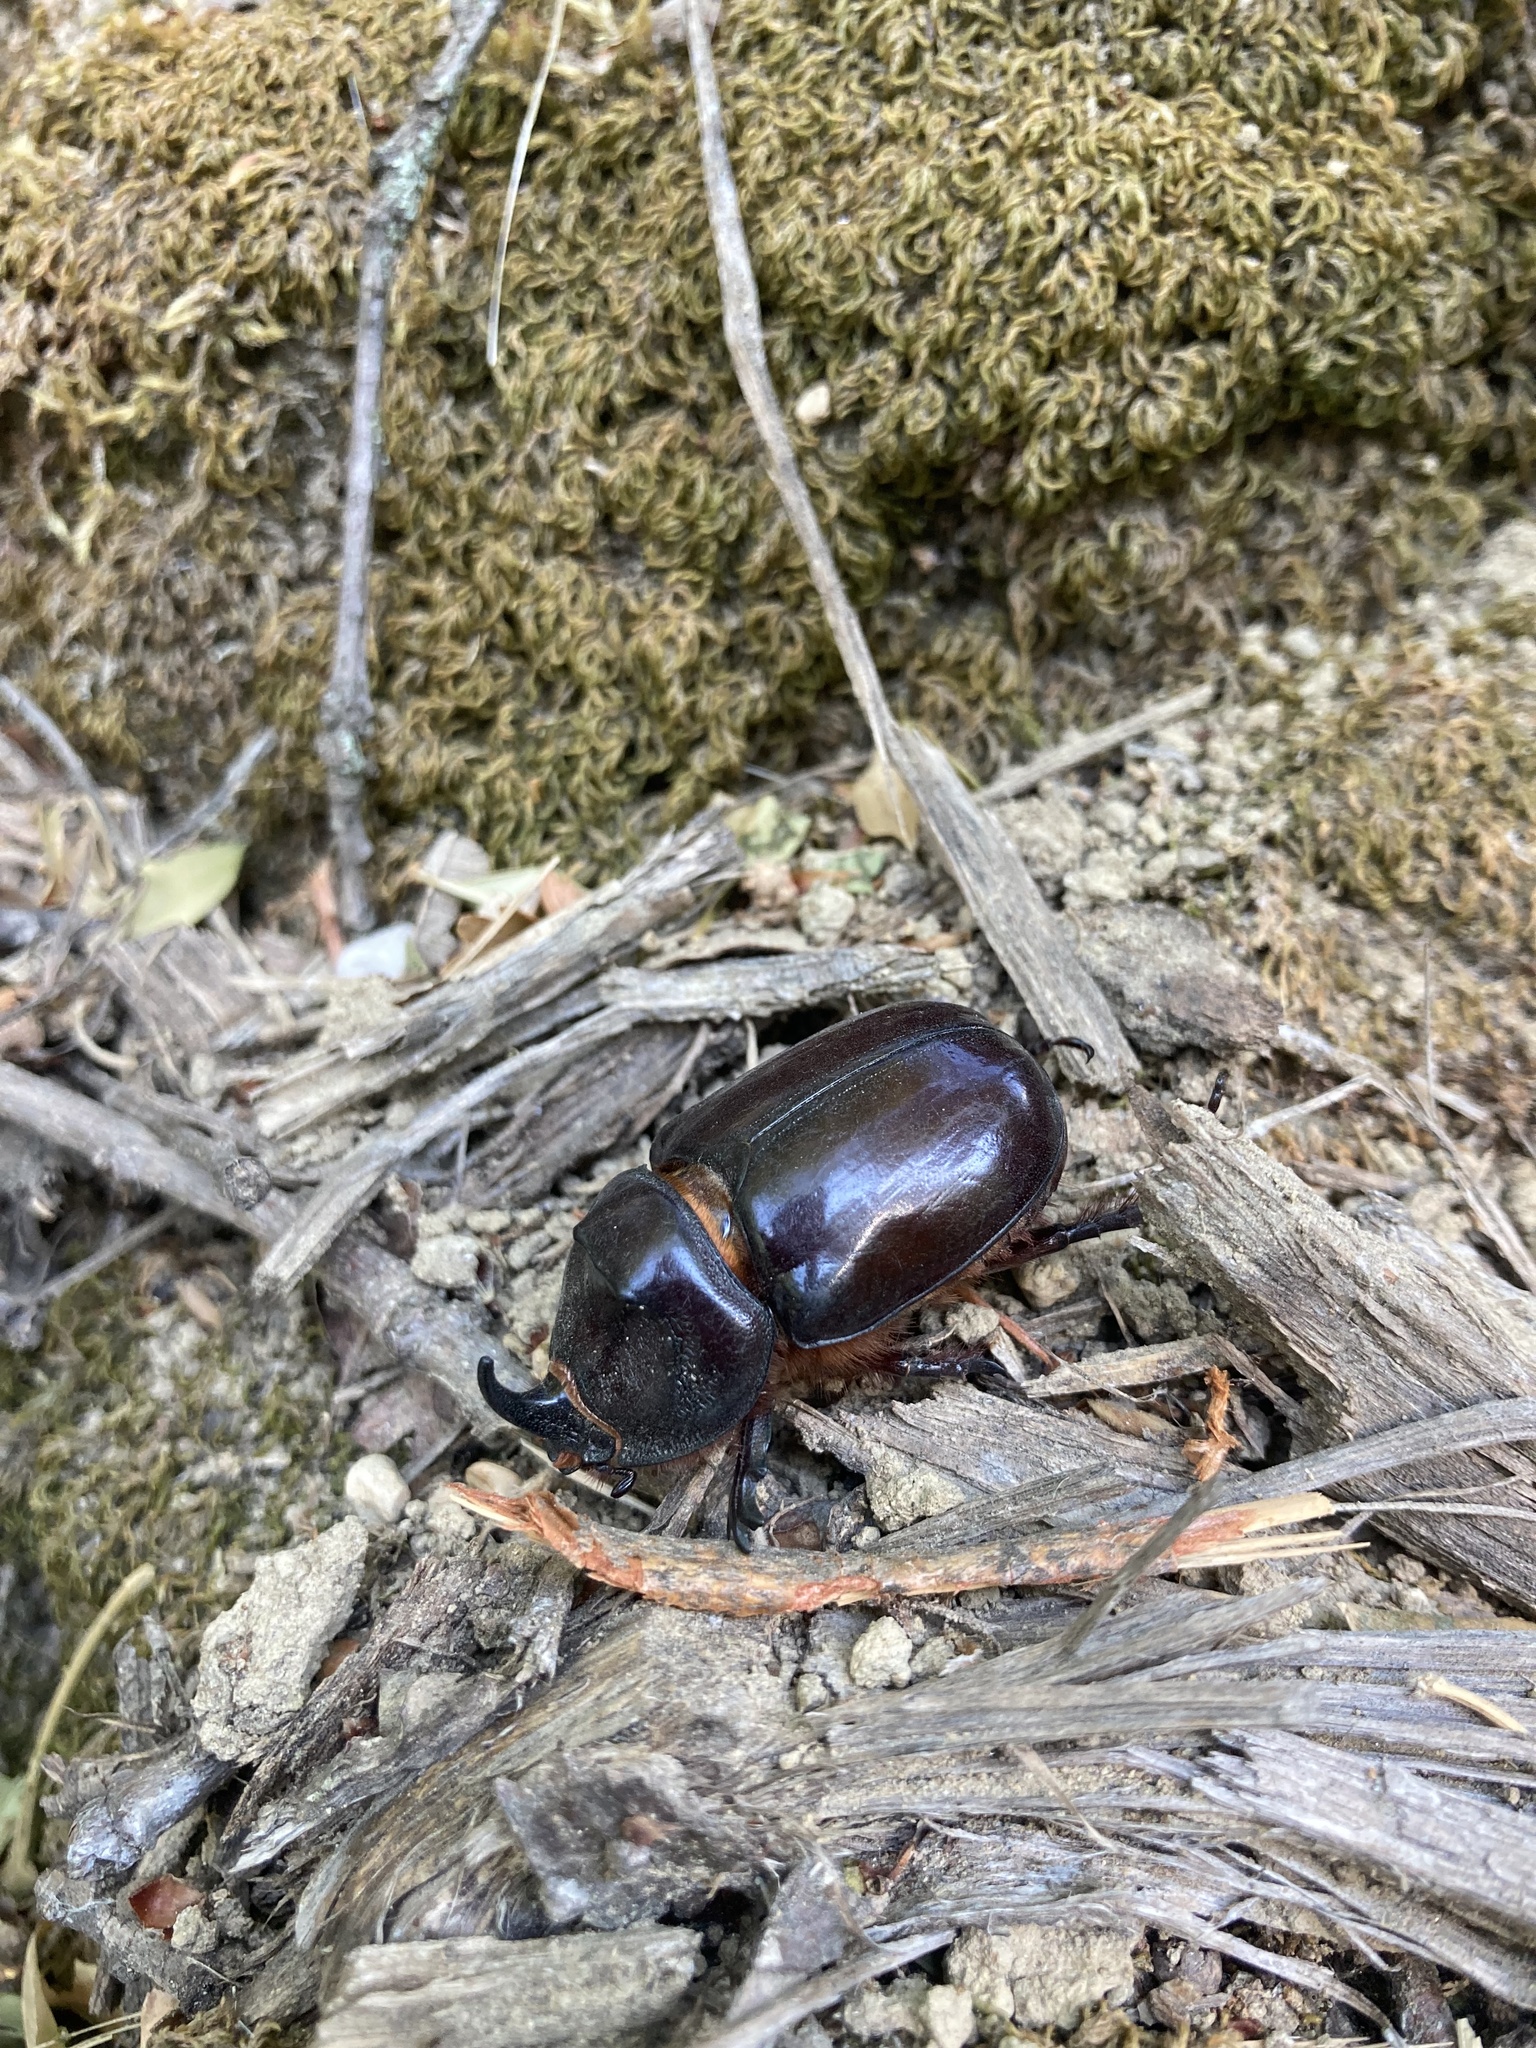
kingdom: Animalia
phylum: Arthropoda
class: Insecta
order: Coleoptera
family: Scarabaeidae
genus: Oryctes
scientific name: Oryctes nasicornis
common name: European rhinoceros beetle
